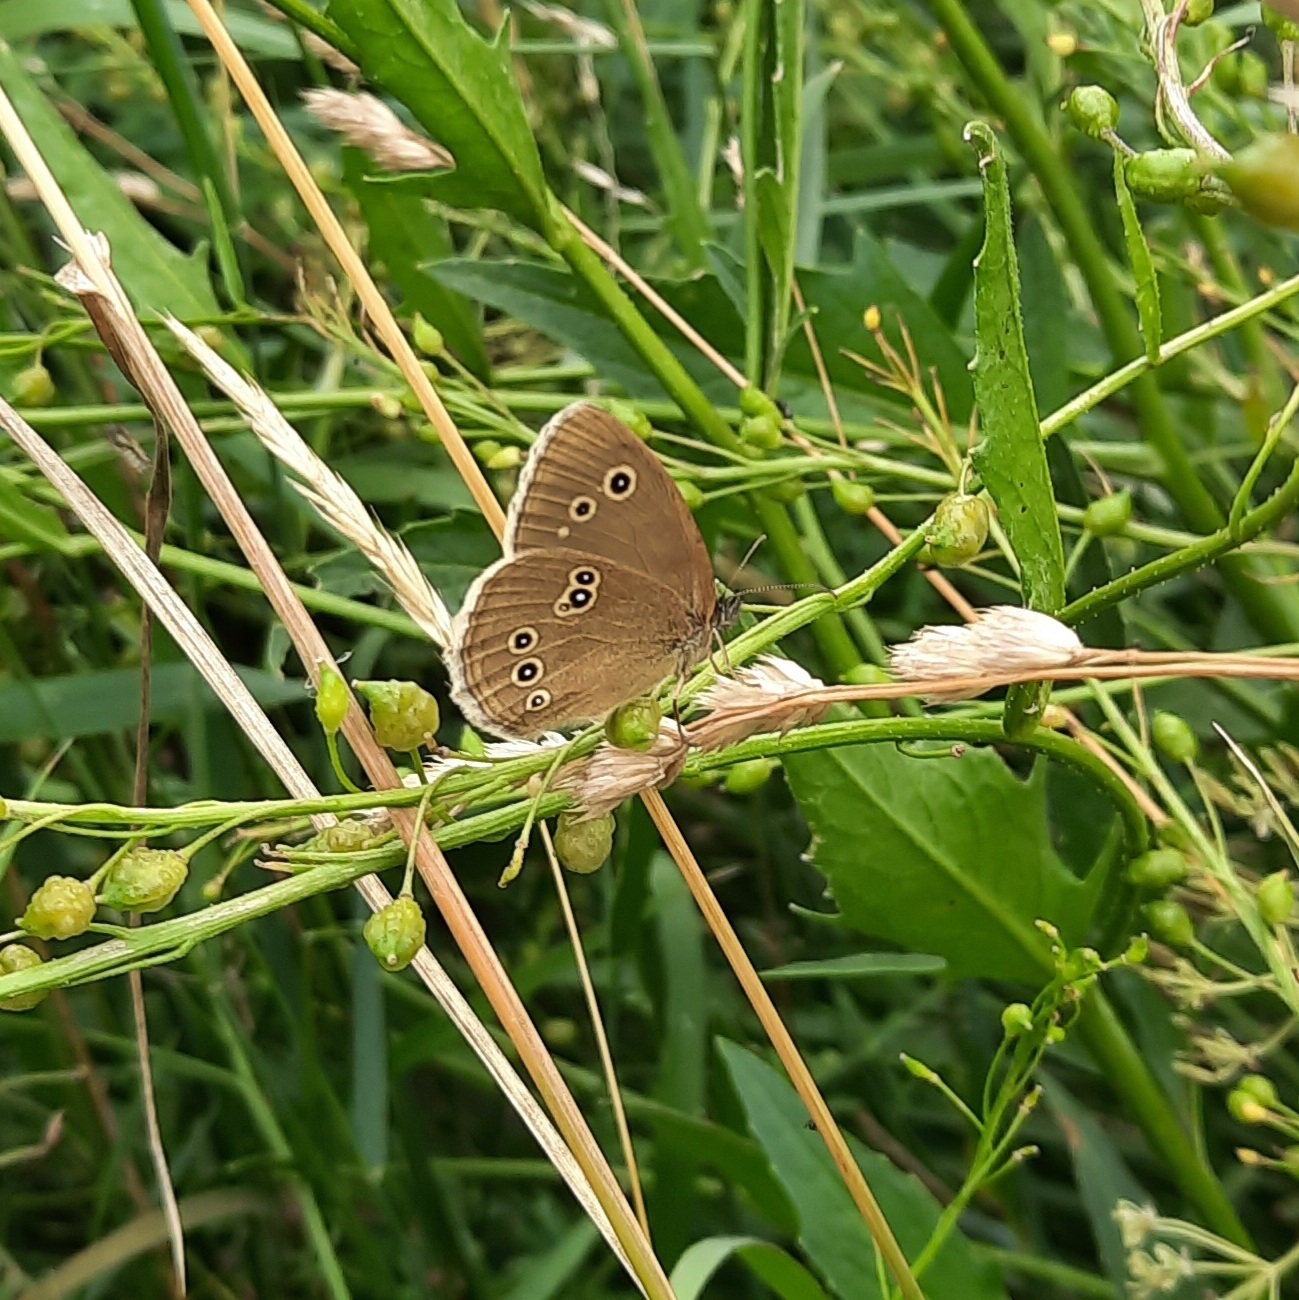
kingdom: Animalia
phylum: Arthropoda
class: Insecta
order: Lepidoptera
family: Nymphalidae
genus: Aphantopus
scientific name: Aphantopus hyperantus
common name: Ringlet
